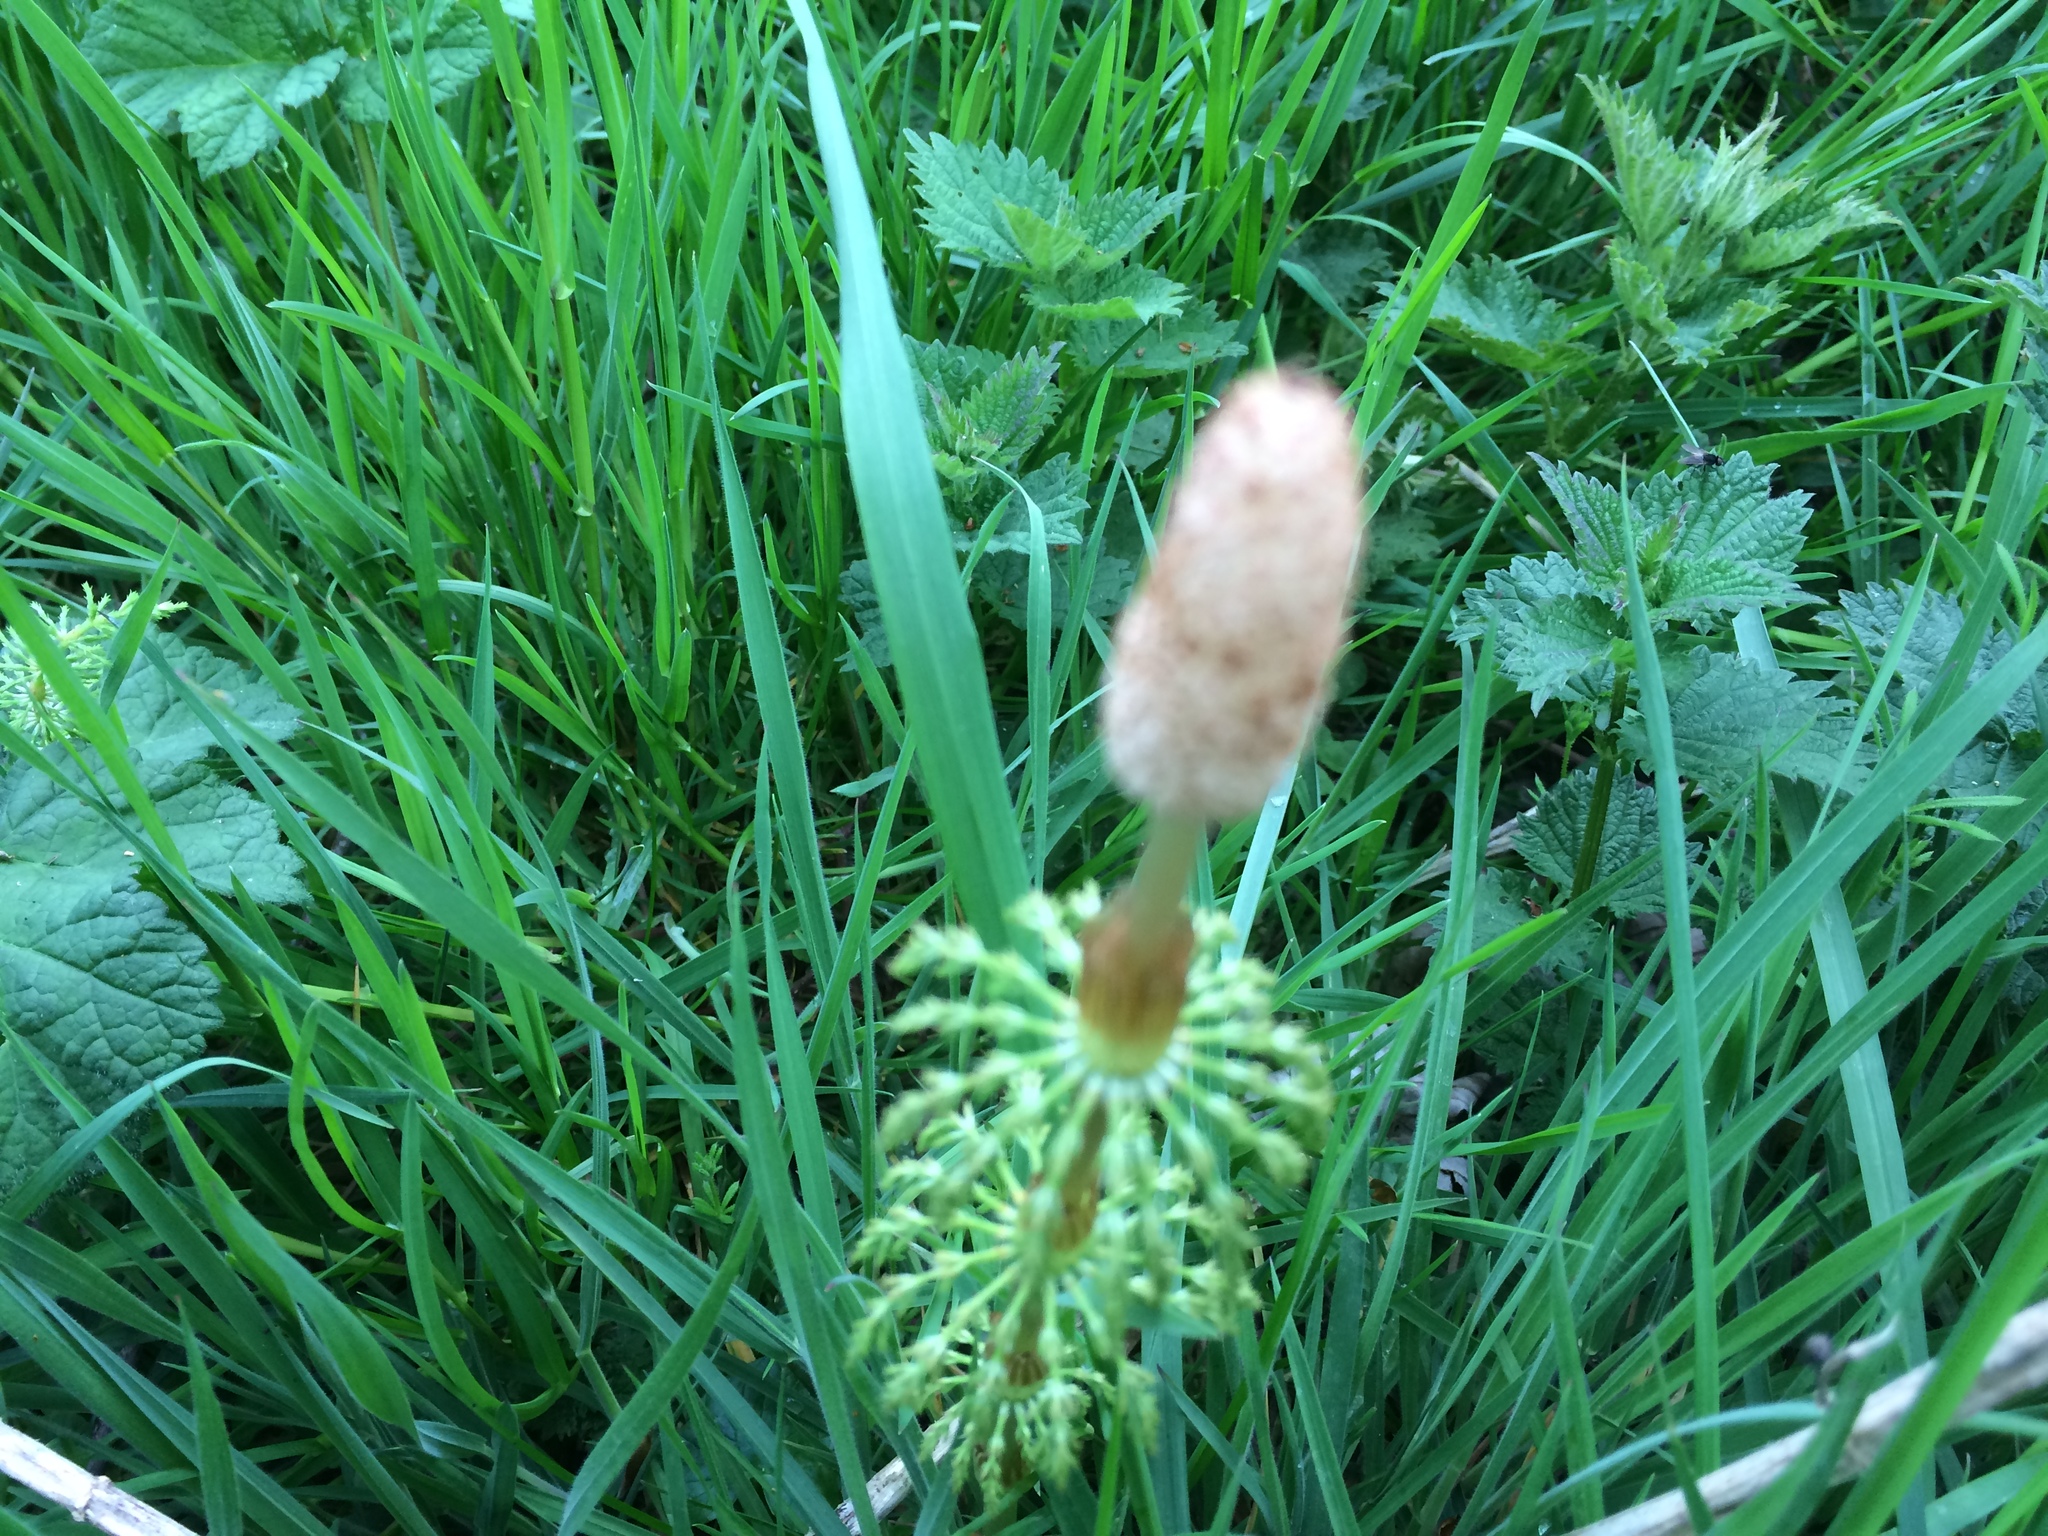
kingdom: Plantae
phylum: Tracheophyta
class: Polypodiopsida
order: Equisetales
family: Equisetaceae
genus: Equisetum
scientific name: Equisetum sylvaticum
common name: Wood horsetail
